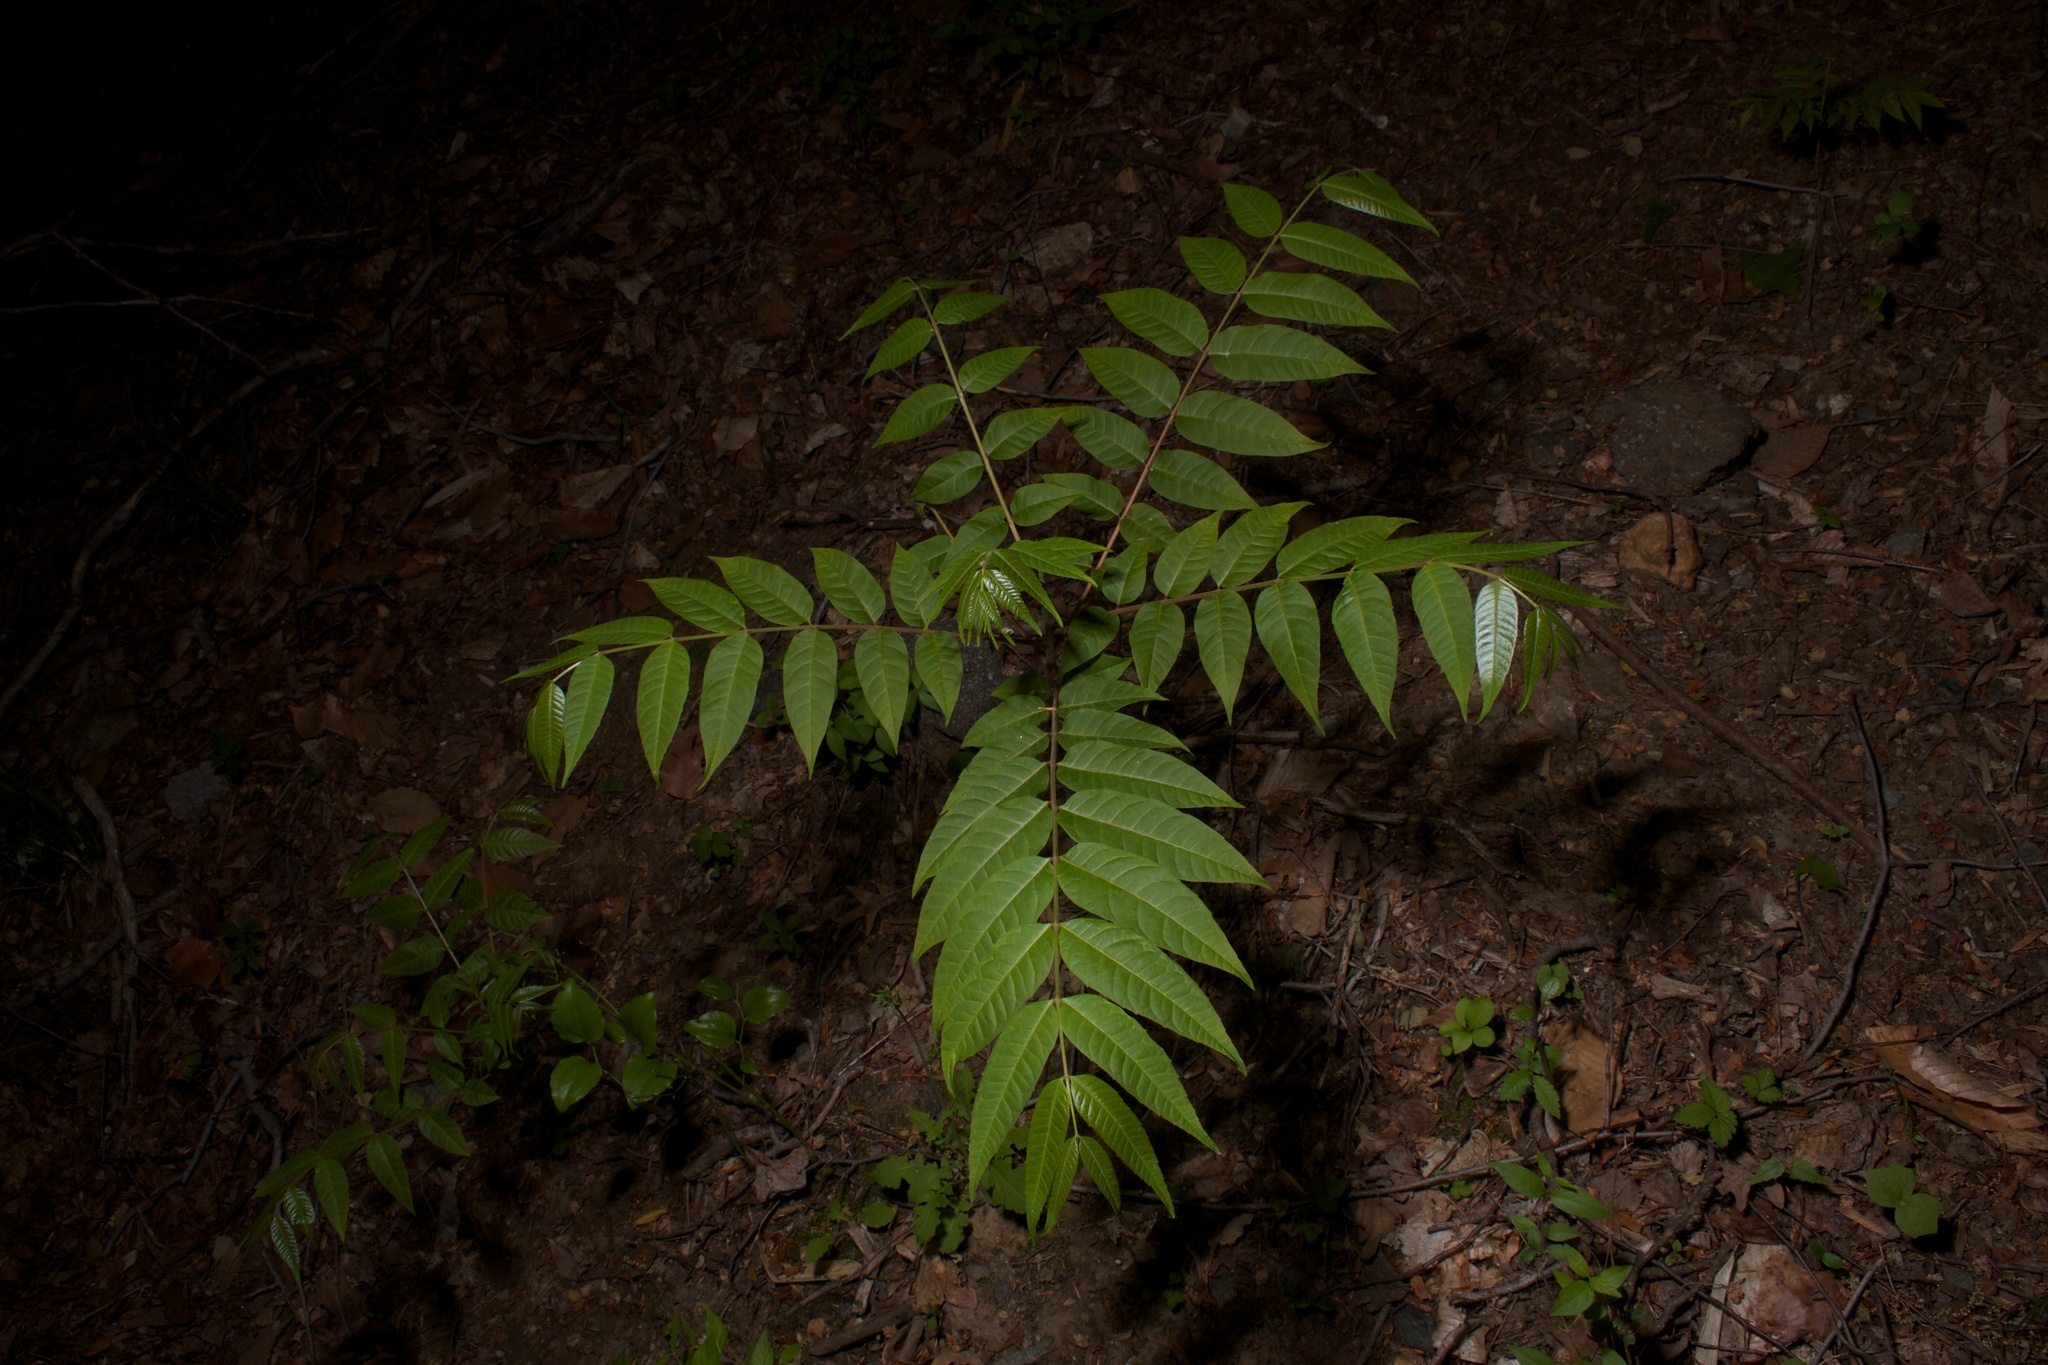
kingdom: Plantae
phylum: Tracheophyta
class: Magnoliopsida
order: Fagales
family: Juglandaceae
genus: Juglans
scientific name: Juglans nigra
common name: Black walnut
